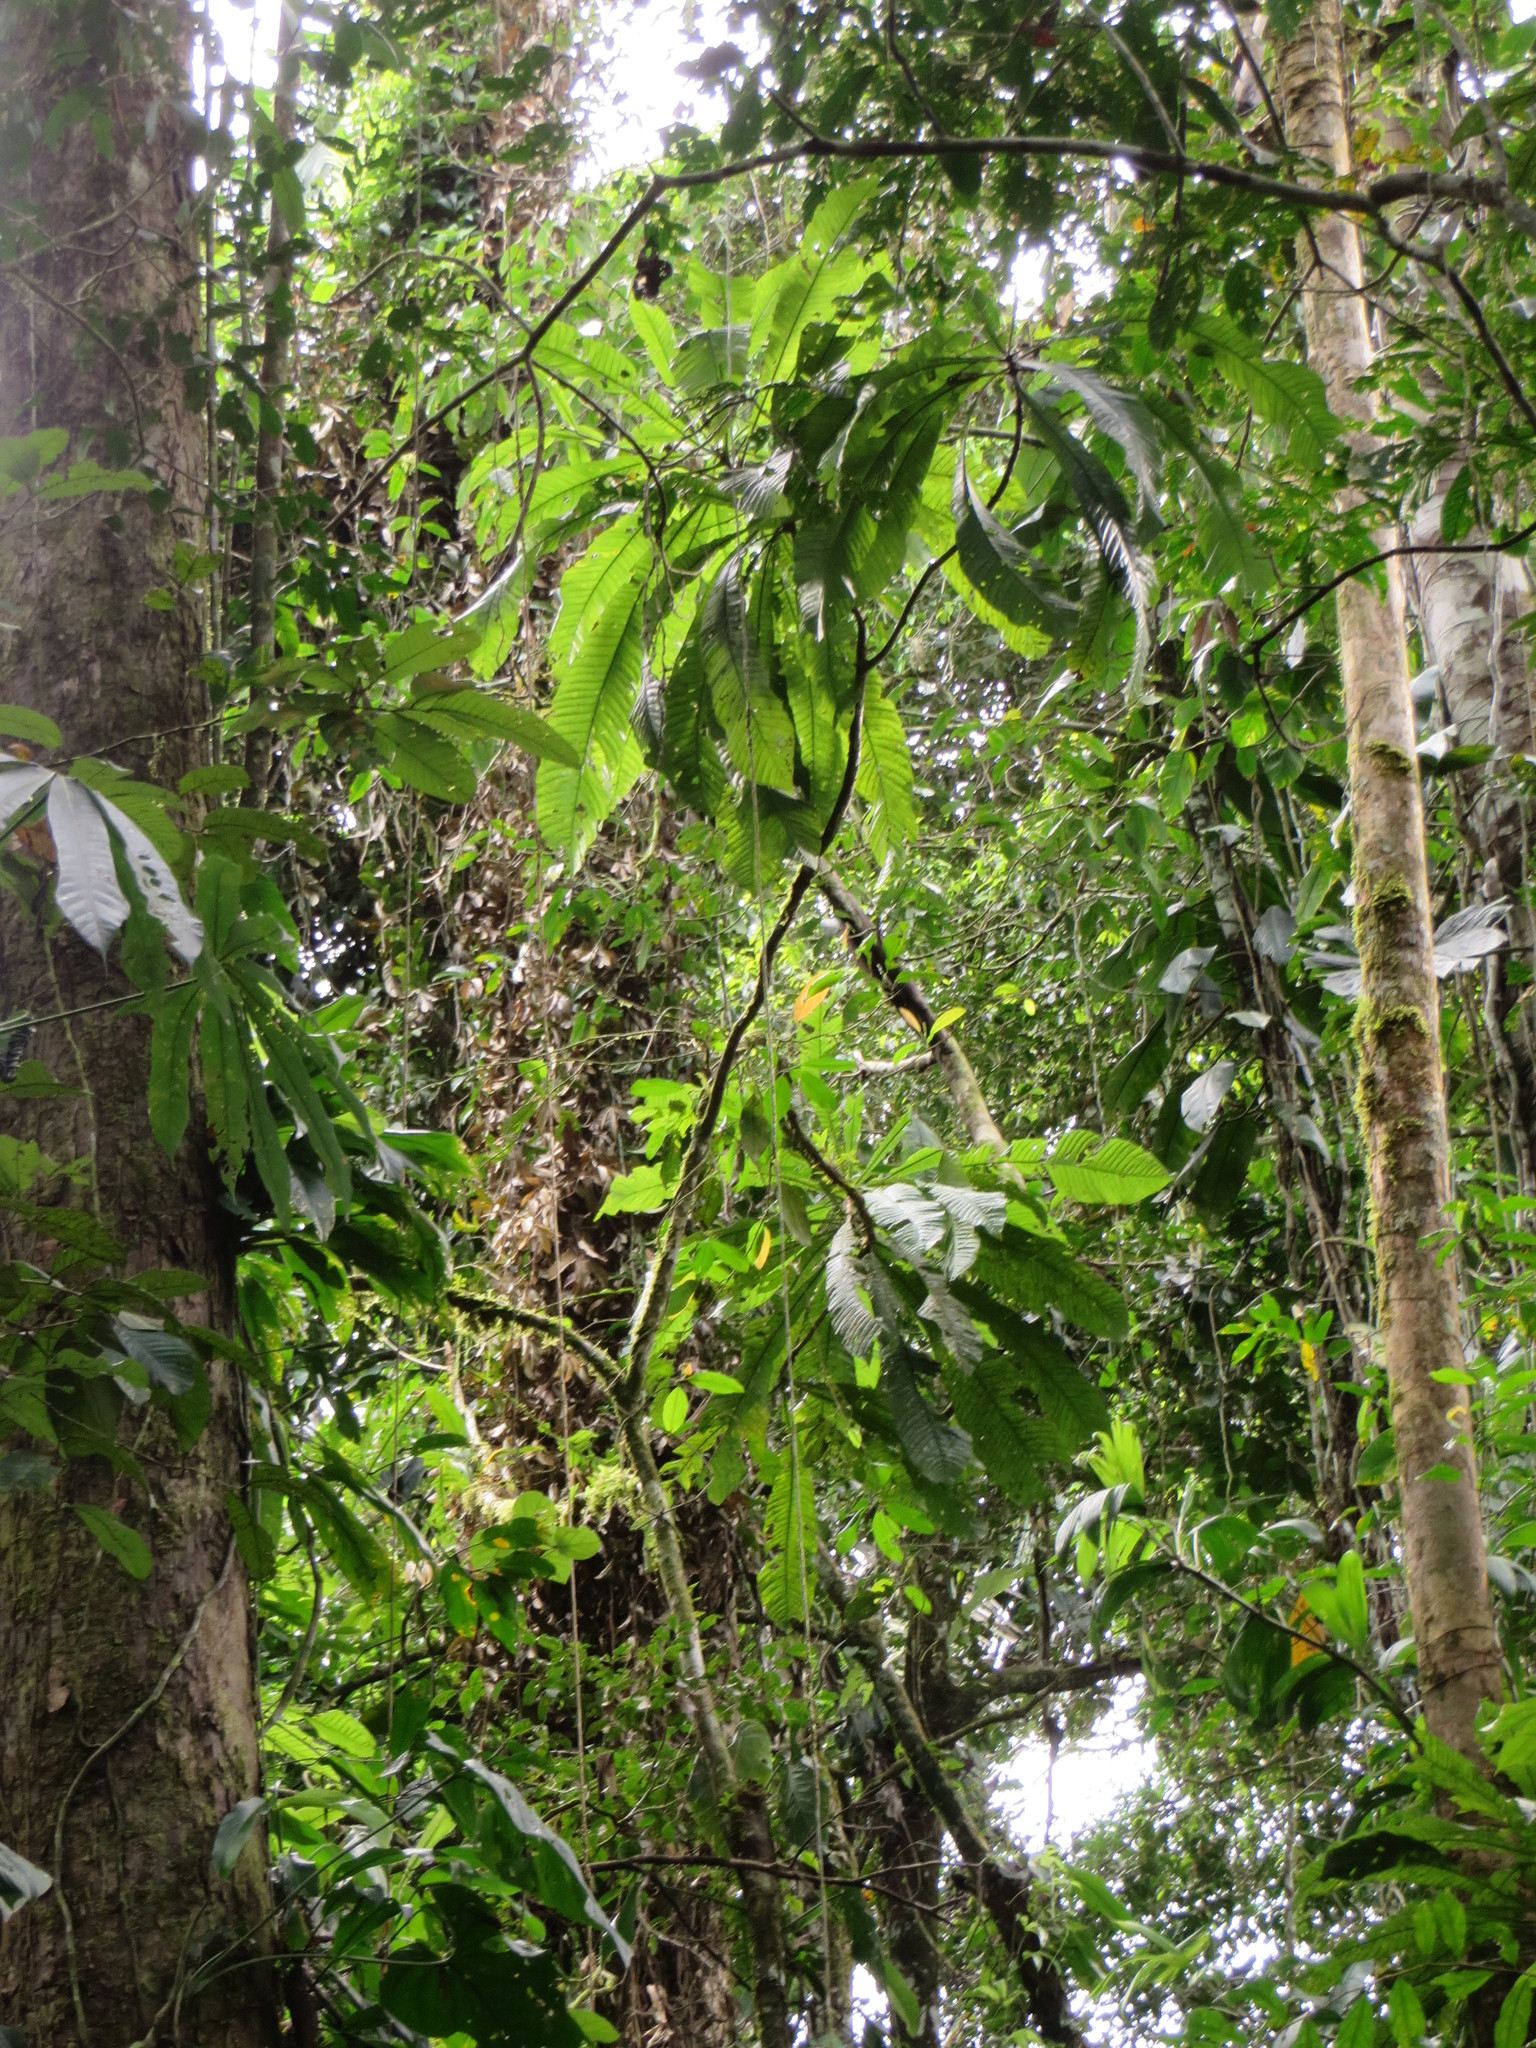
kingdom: Plantae
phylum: Tracheophyta
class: Magnoliopsida
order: Ericales
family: Lecythidaceae
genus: Gustavia
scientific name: Gustavia longifolia
